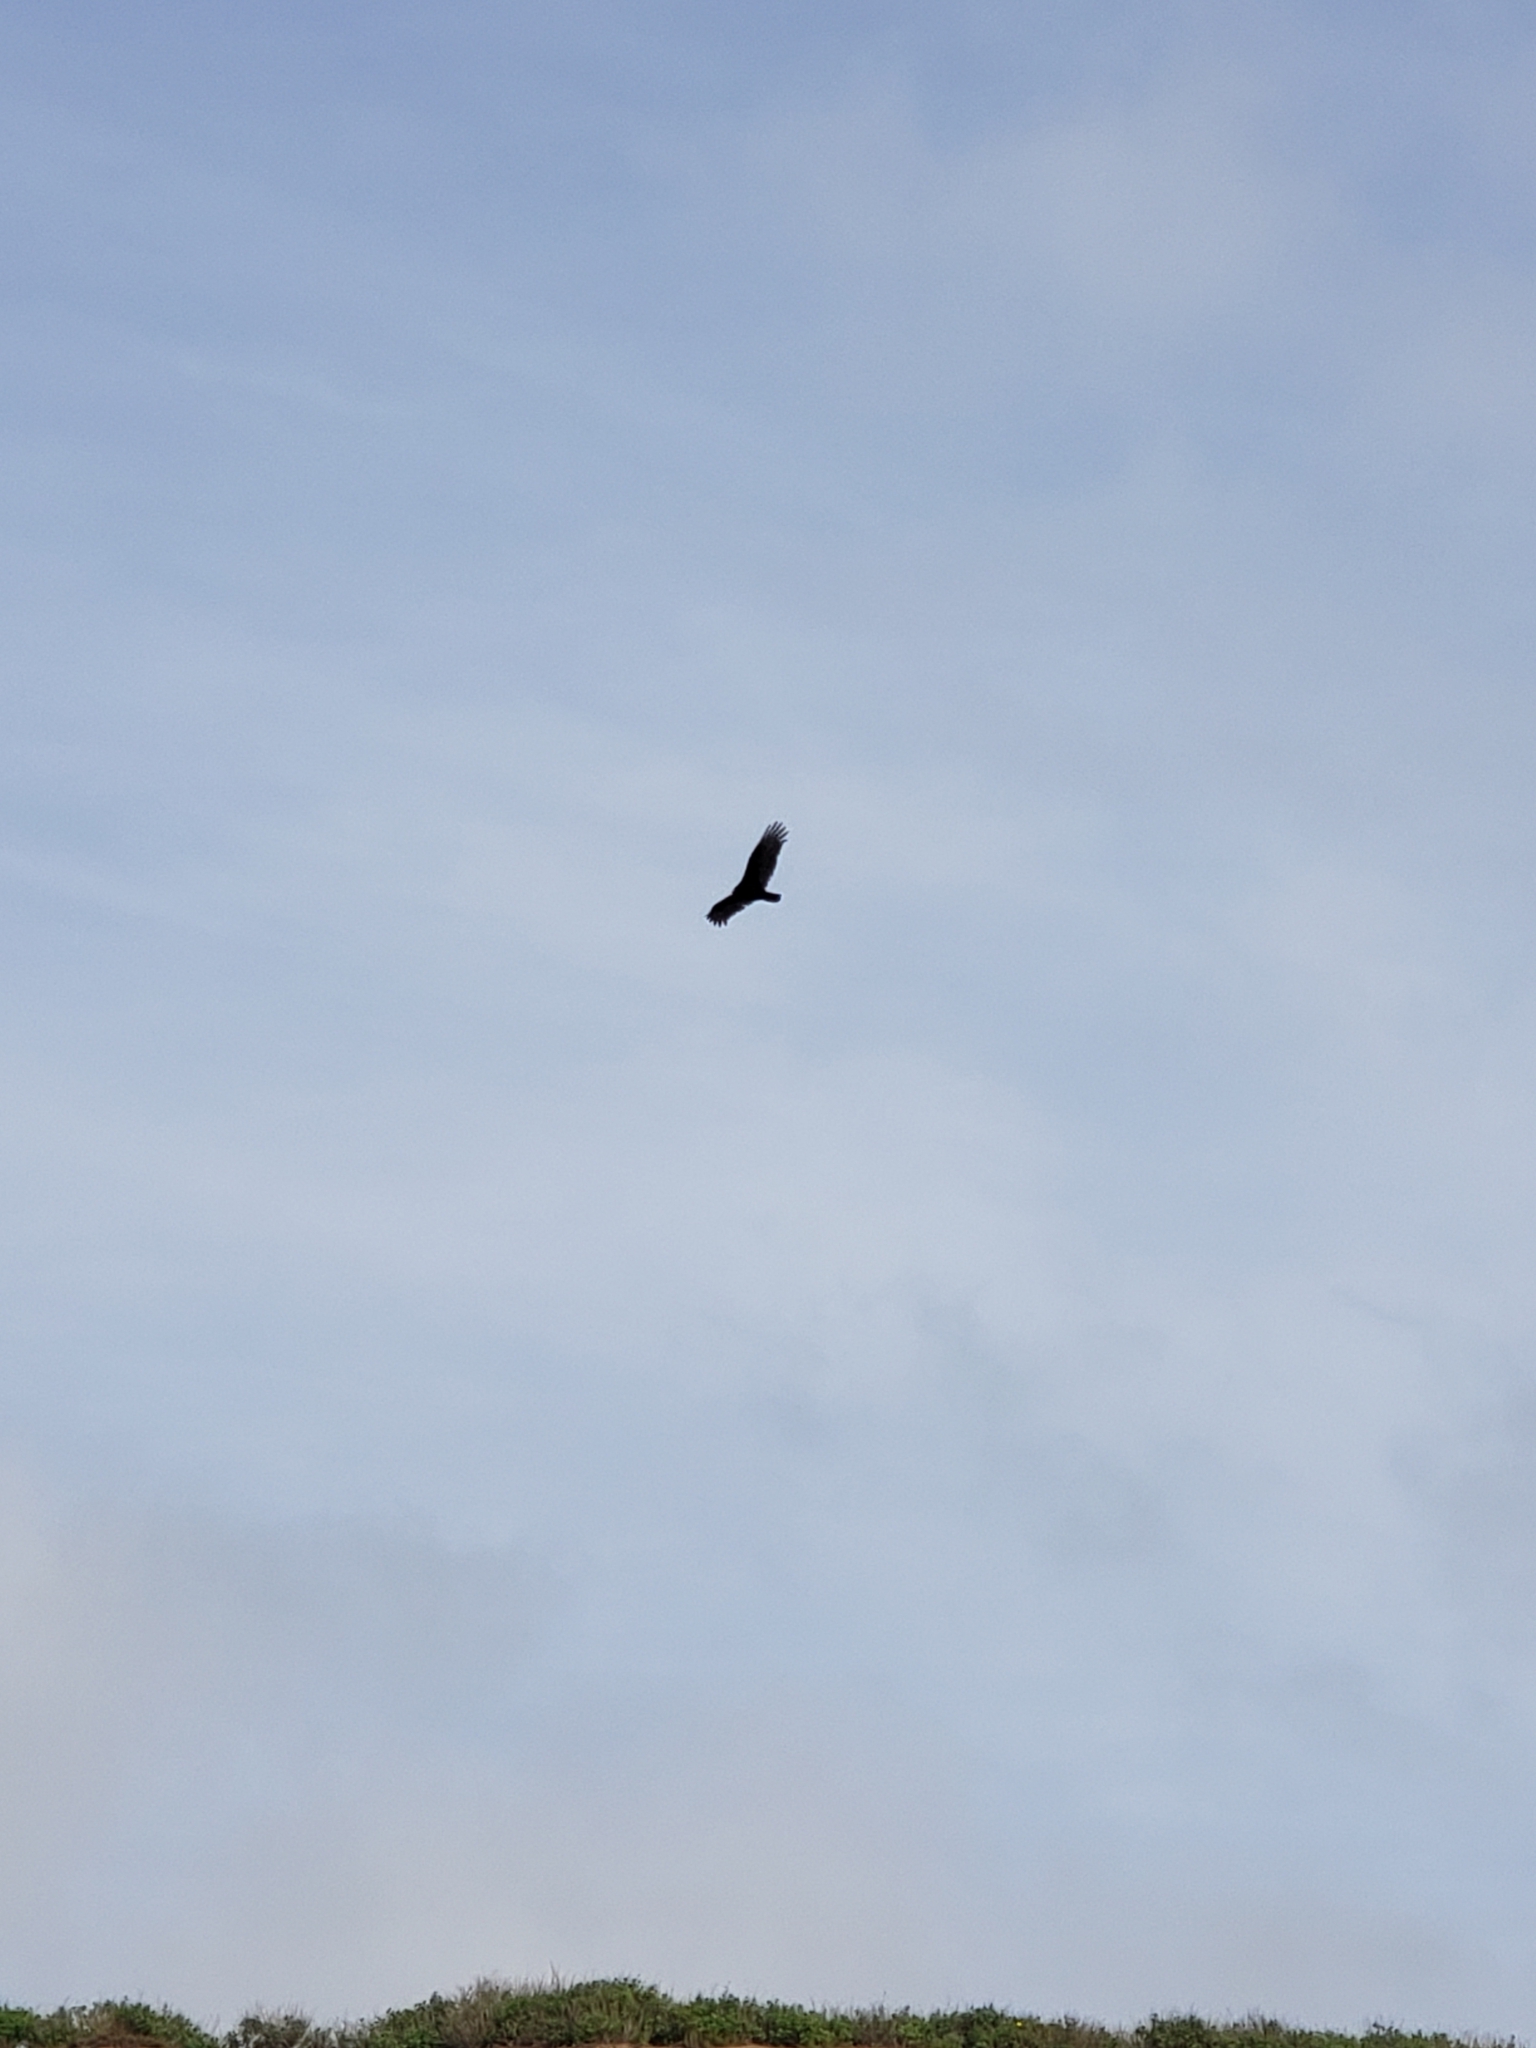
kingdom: Animalia
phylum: Chordata
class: Aves
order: Accipitriformes
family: Cathartidae
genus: Cathartes
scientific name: Cathartes aura
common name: Turkey vulture
